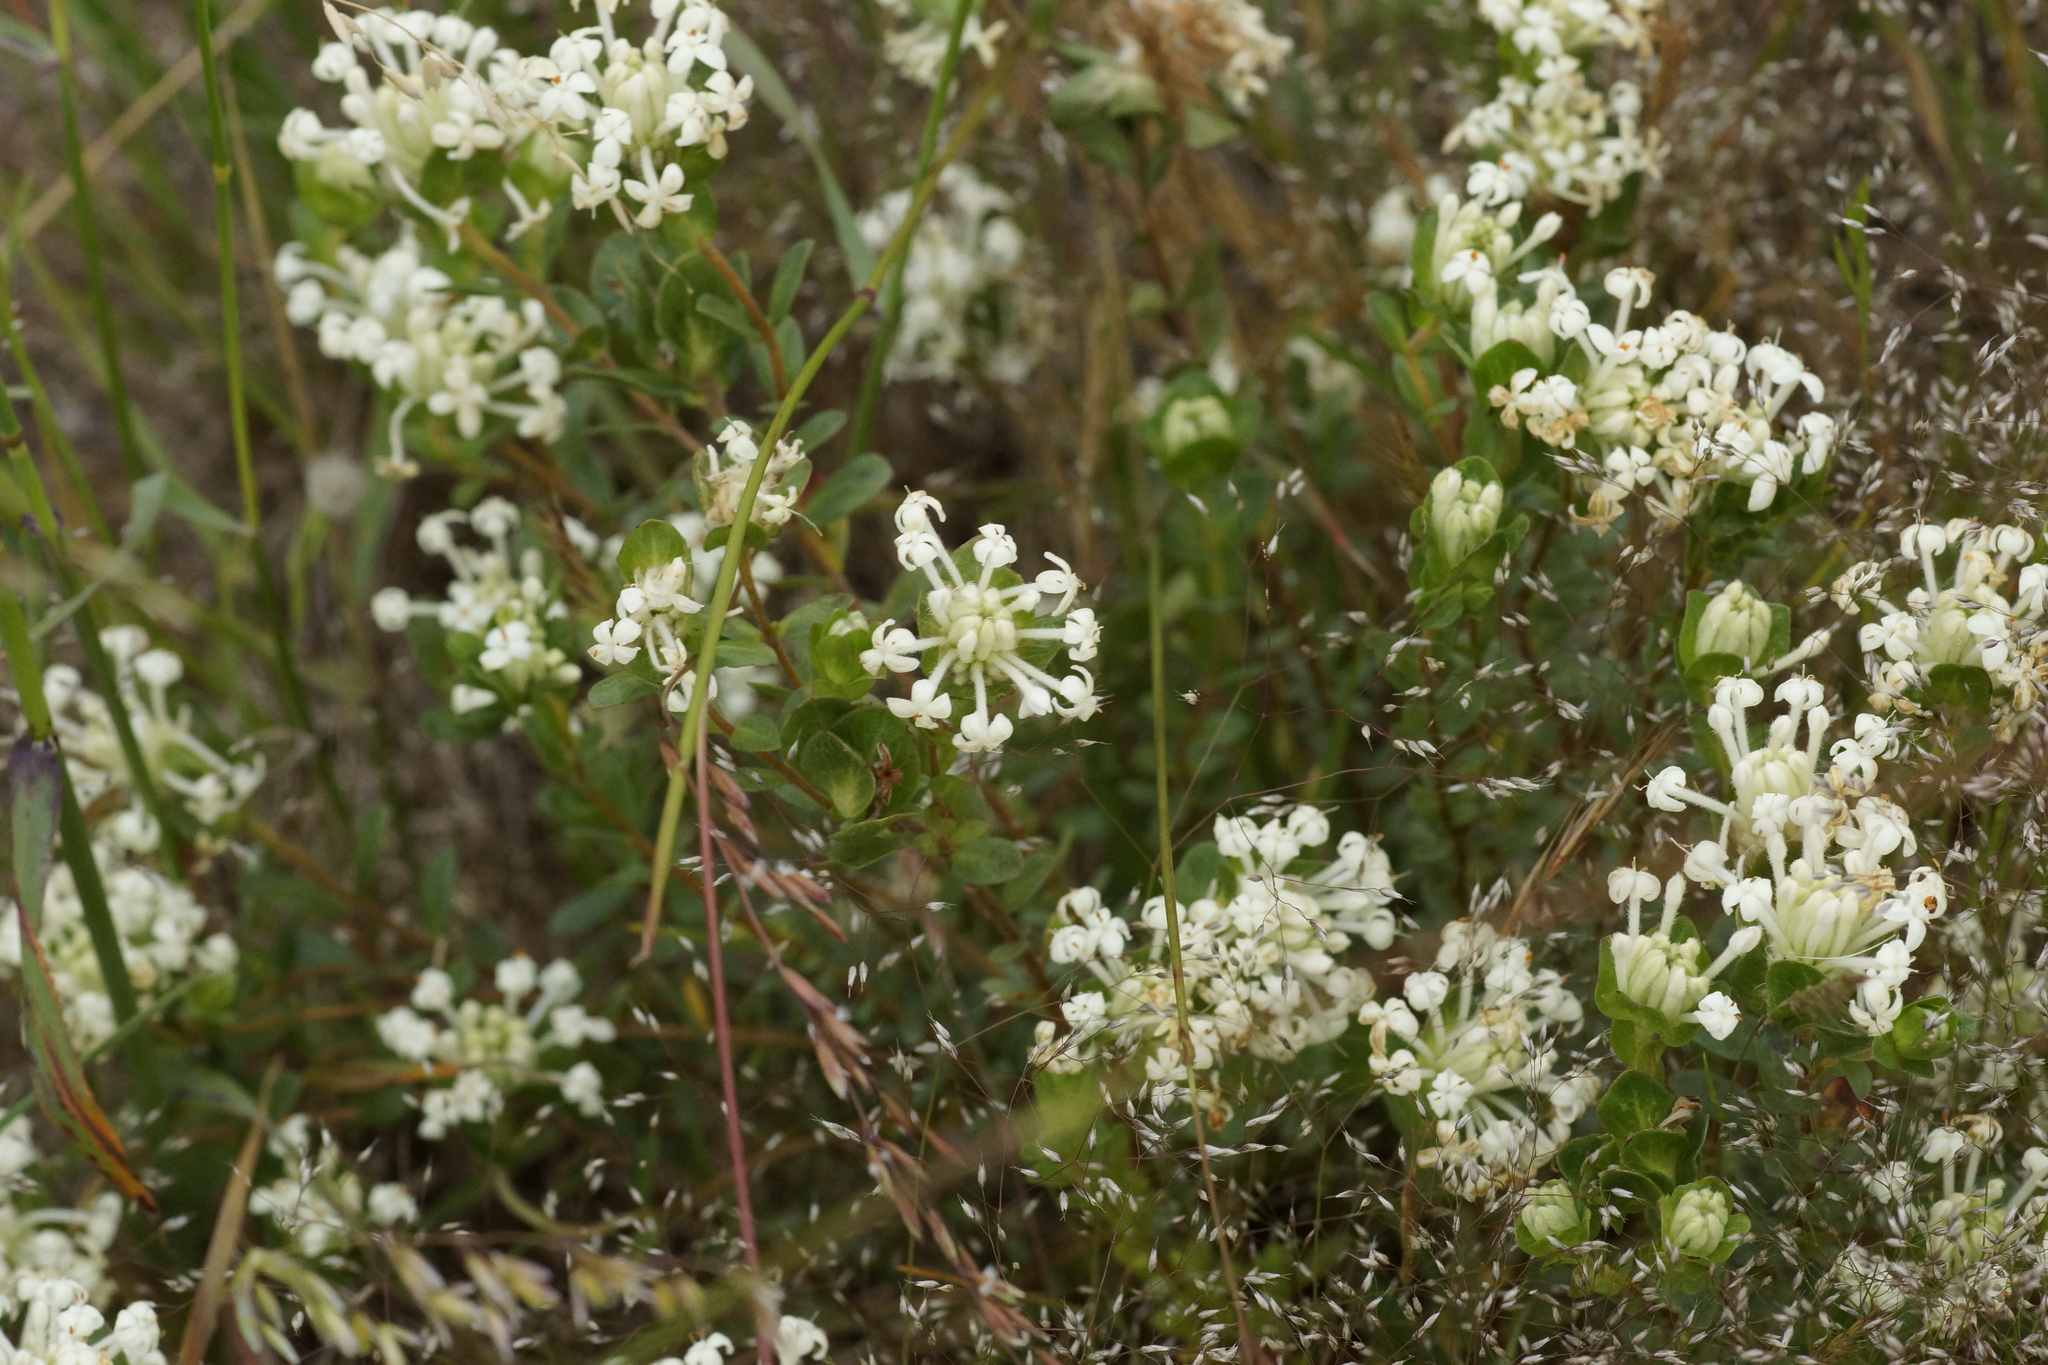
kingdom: Plantae
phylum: Tracheophyta
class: Magnoliopsida
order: Malvales
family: Thymelaeaceae
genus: Pimelea
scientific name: Pimelea humilis
